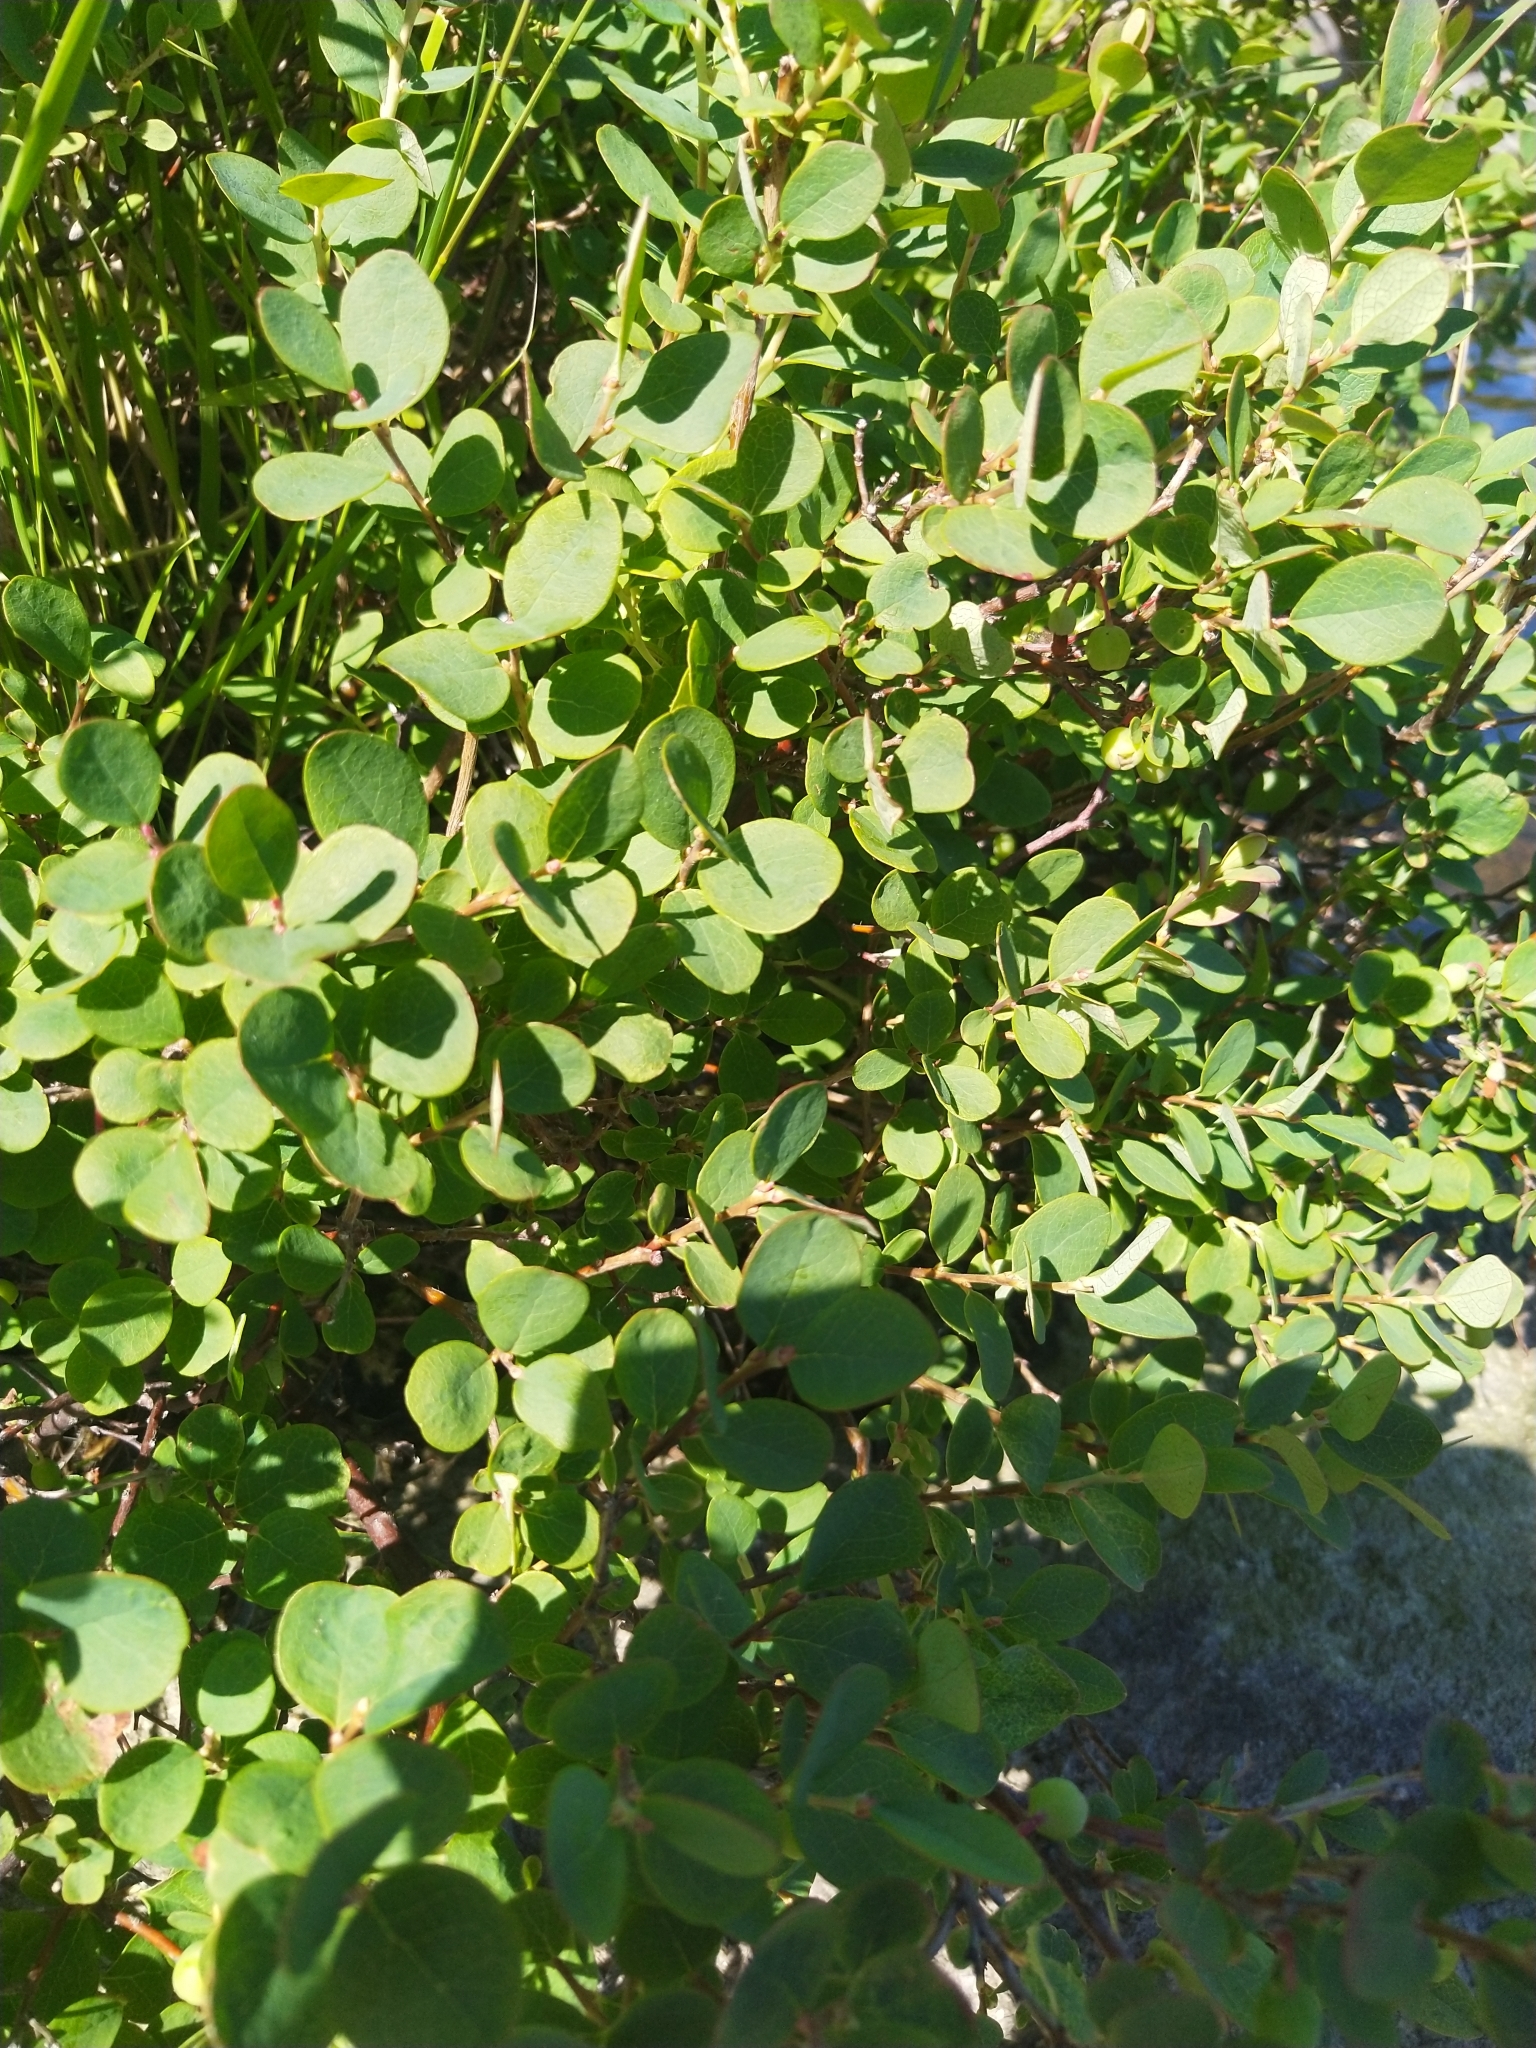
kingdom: Plantae
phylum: Tracheophyta
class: Magnoliopsida
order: Ericales
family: Ericaceae
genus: Vaccinium
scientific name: Vaccinium uliginosum
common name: Bog bilberry
